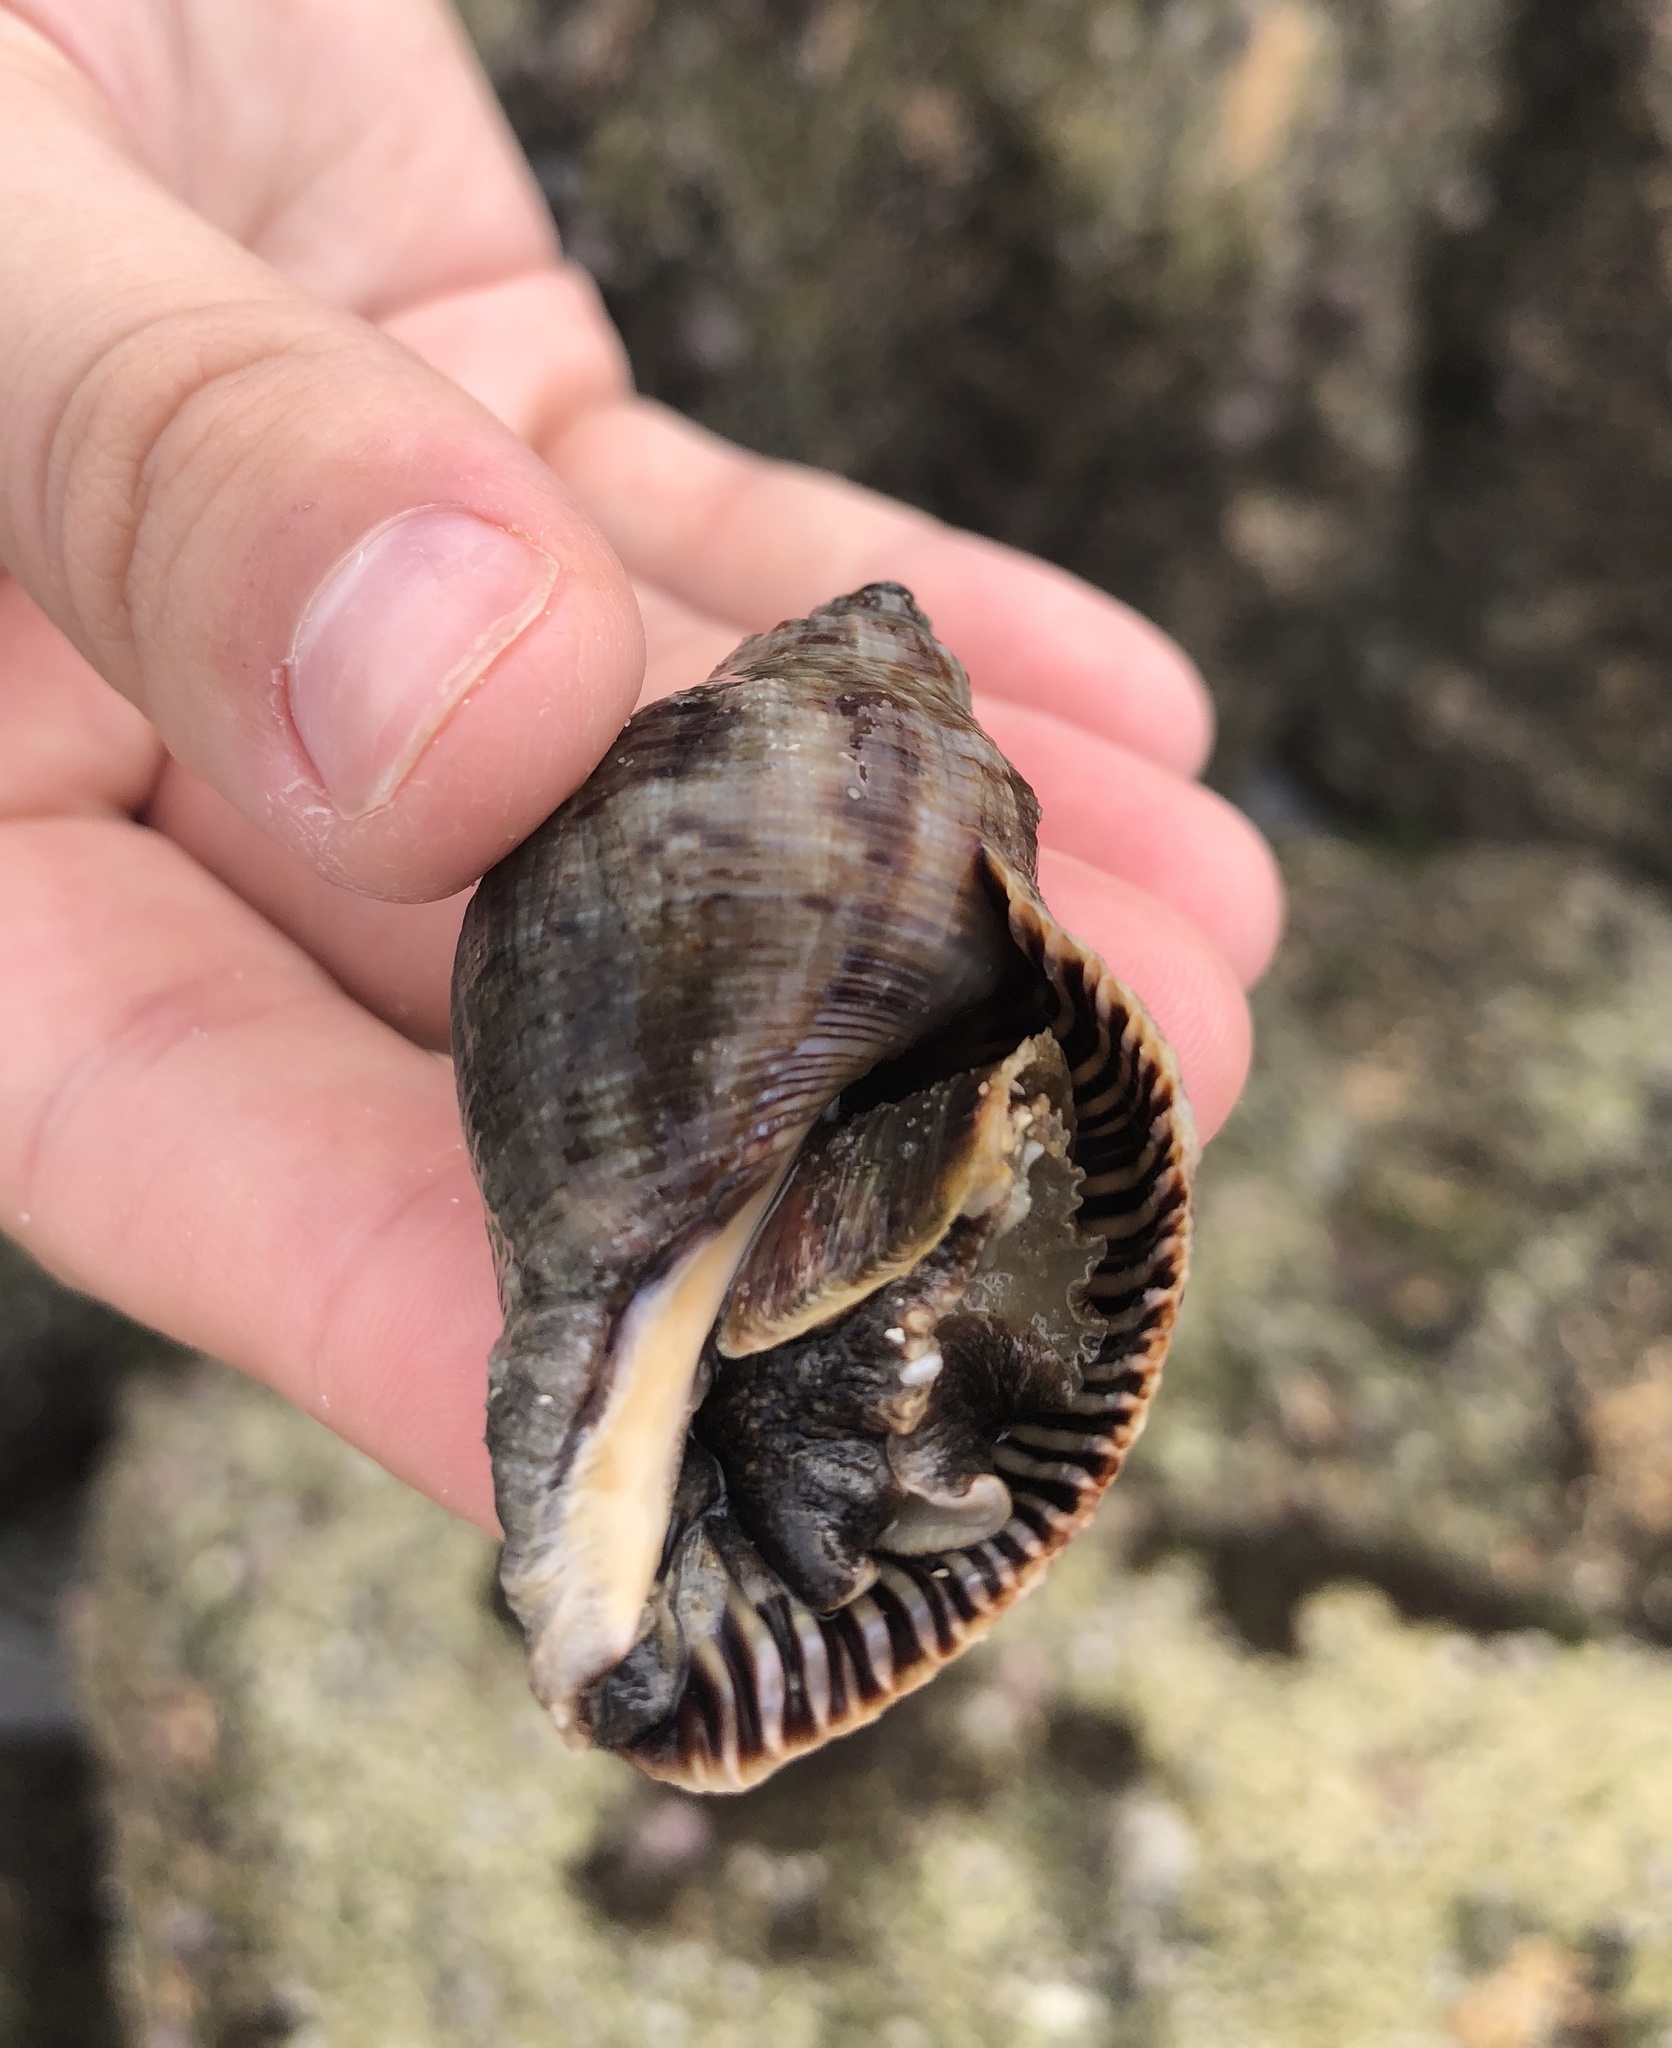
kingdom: Animalia
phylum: Mollusca
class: Gastropoda
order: Neogastropoda
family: Muricidae
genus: Stramonita
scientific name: Stramonita floridana
